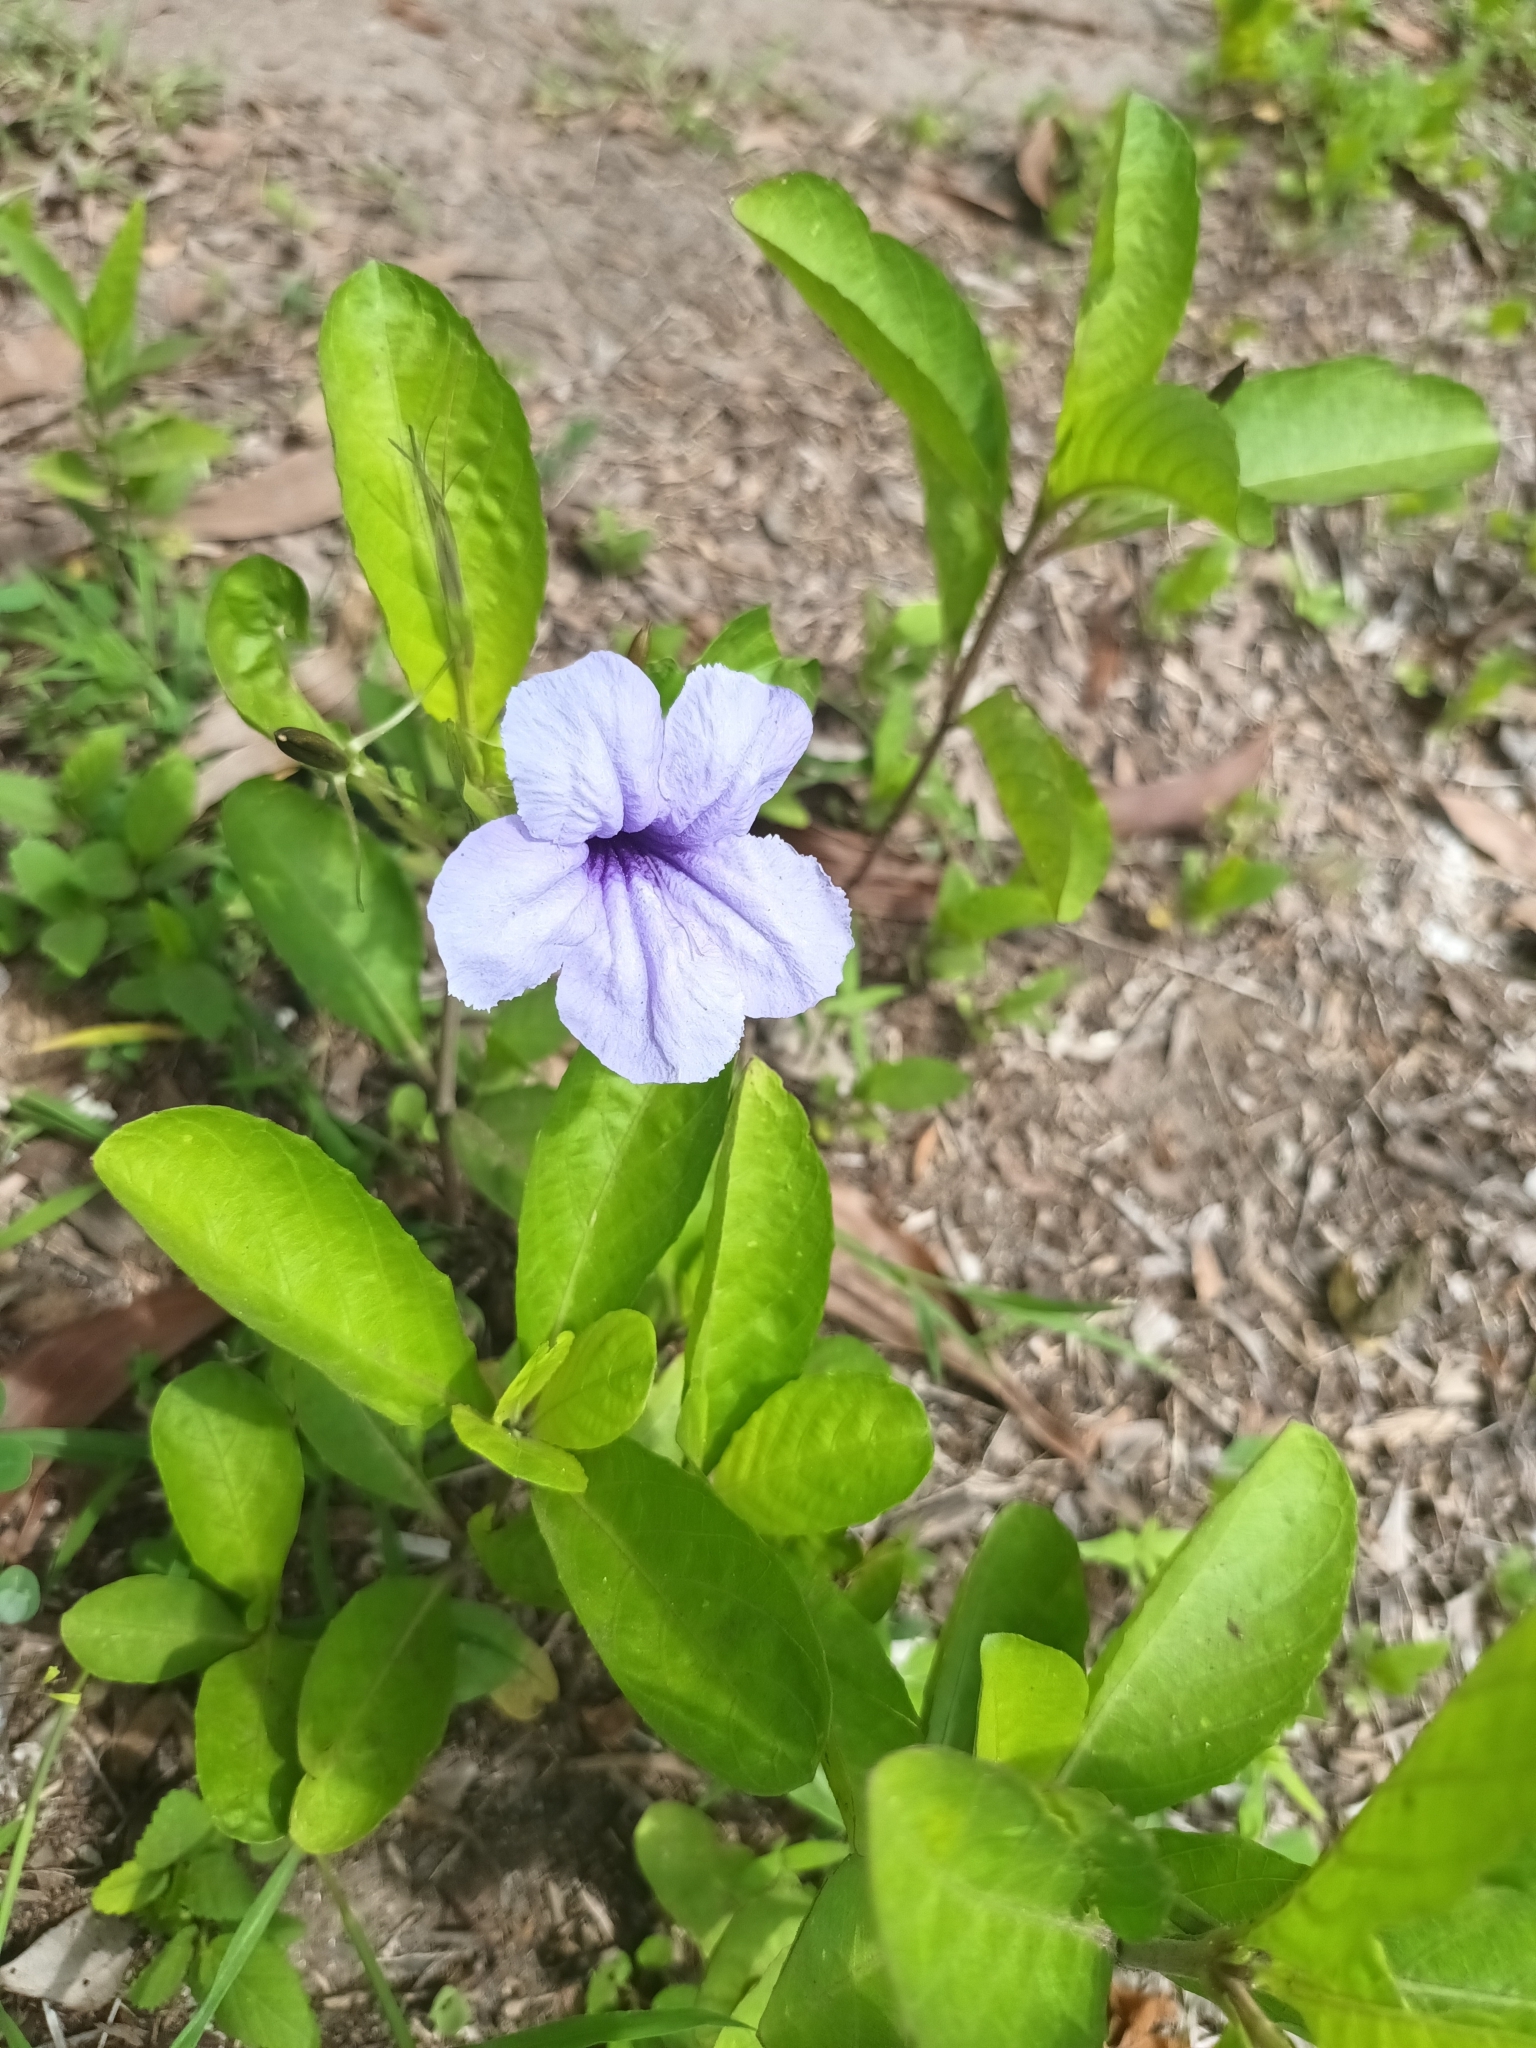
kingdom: Plantae
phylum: Tracheophyta
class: Magnoliopsida
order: Lamiales
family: Acanthaceae
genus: Ruellia
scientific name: Ruellia tuberosa
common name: Devil's bit
